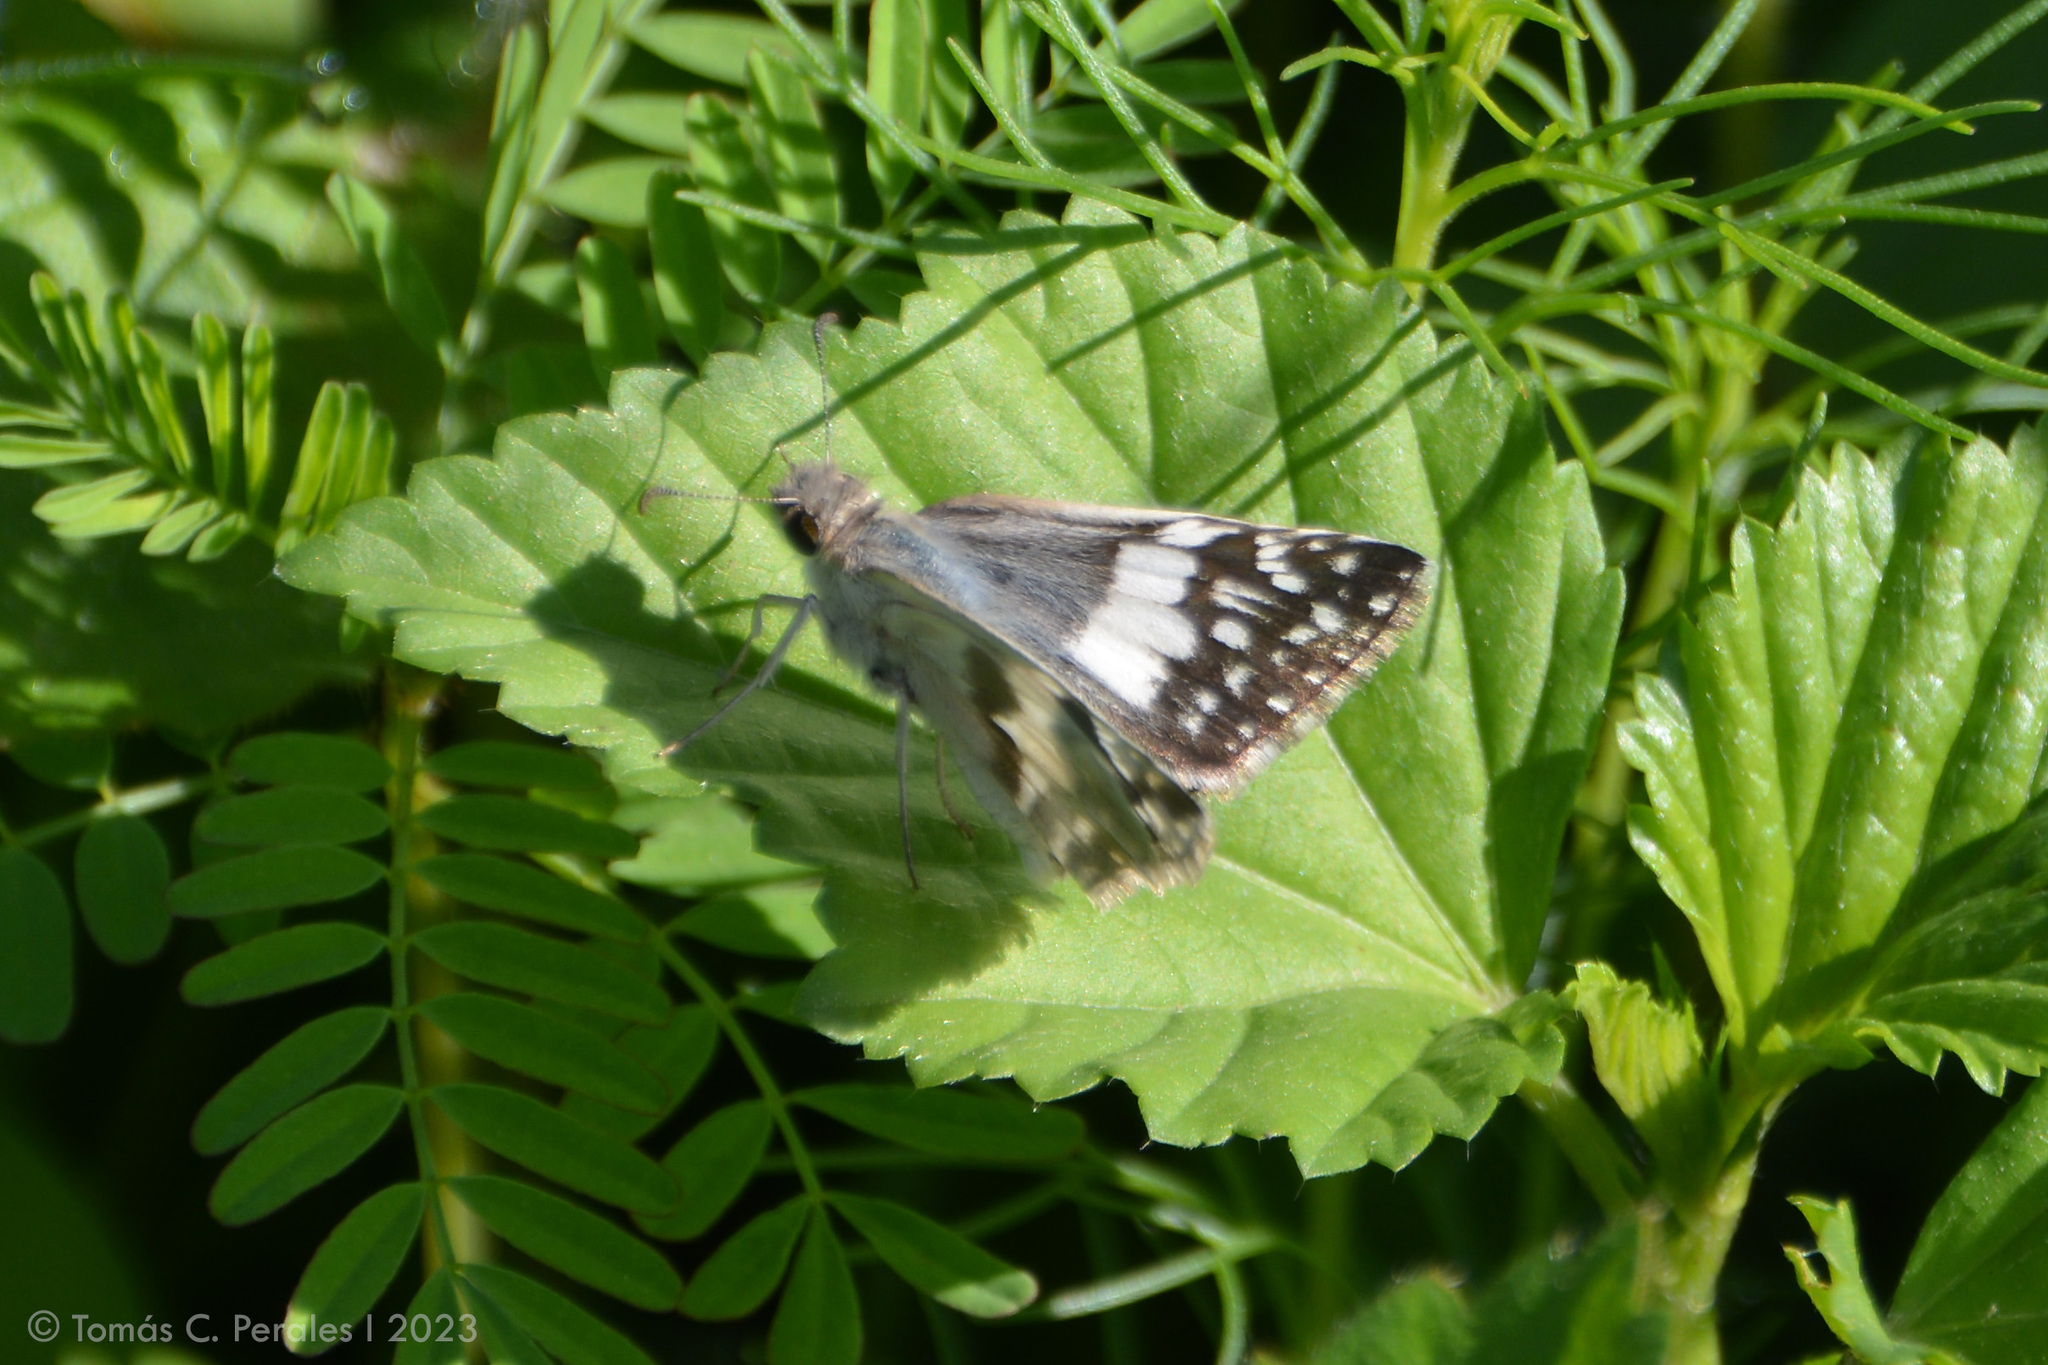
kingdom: Animalia
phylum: Arthropoda
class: Insecta
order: Lepidoptera
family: Hesperiidae
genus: Heliopyrgus
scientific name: Heliopyrgus domicella
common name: Erichson's white skipper
